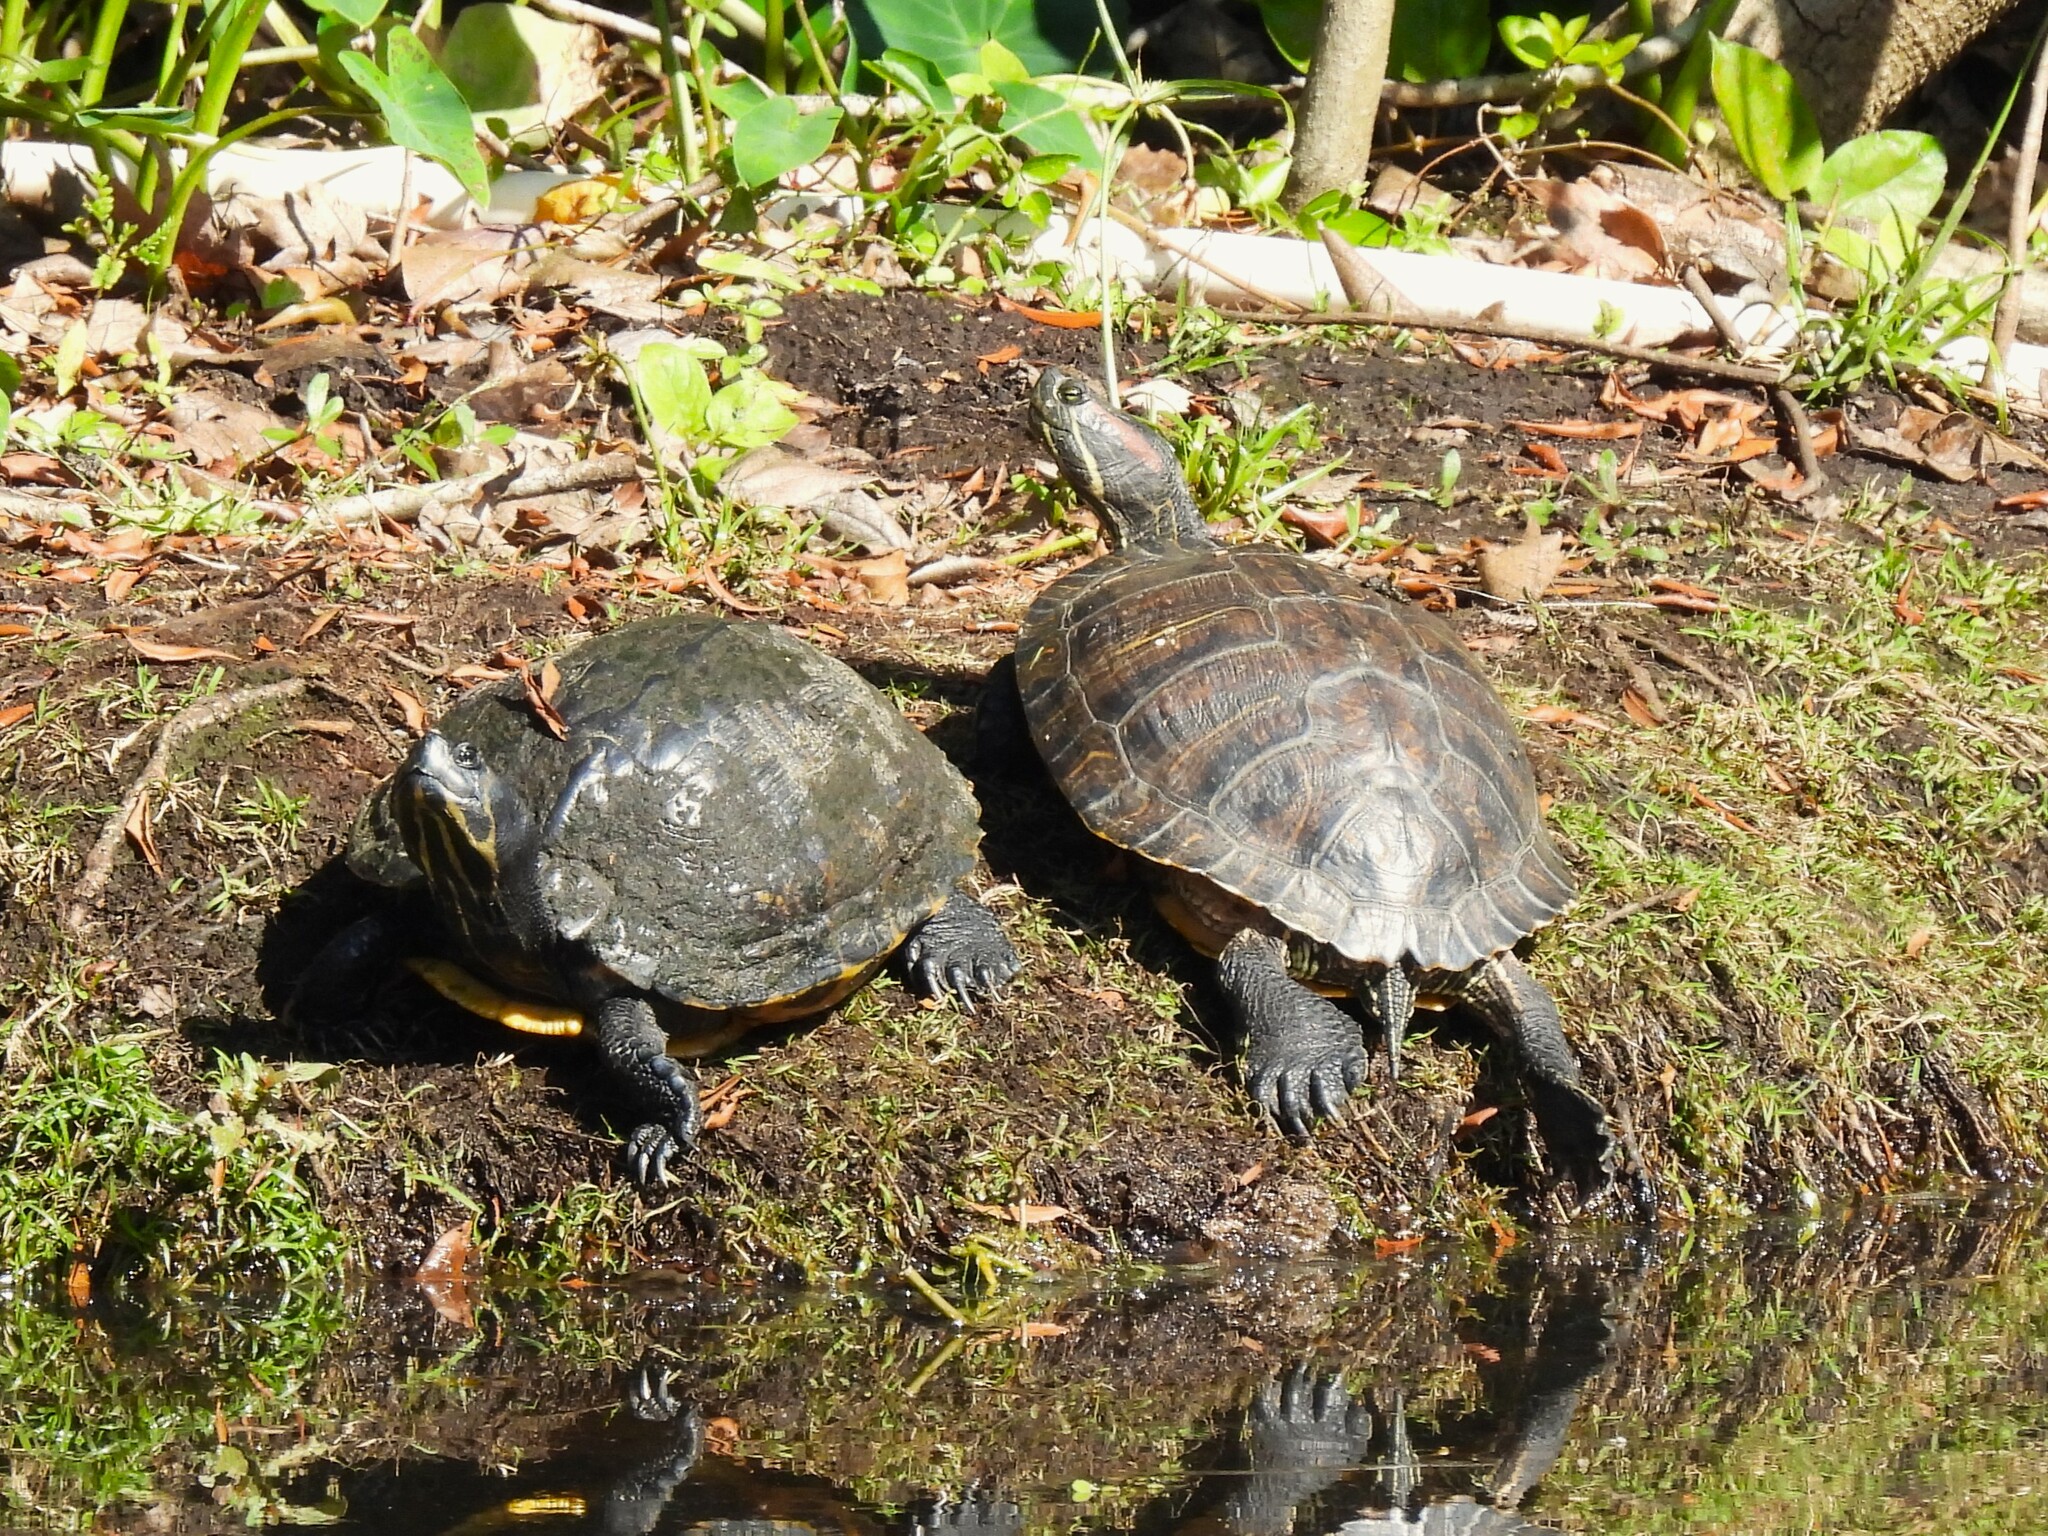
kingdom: Animalia
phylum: Chordata
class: Testudines
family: Emydidae
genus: Trachemys
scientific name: Trachemys scripta
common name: Slider
